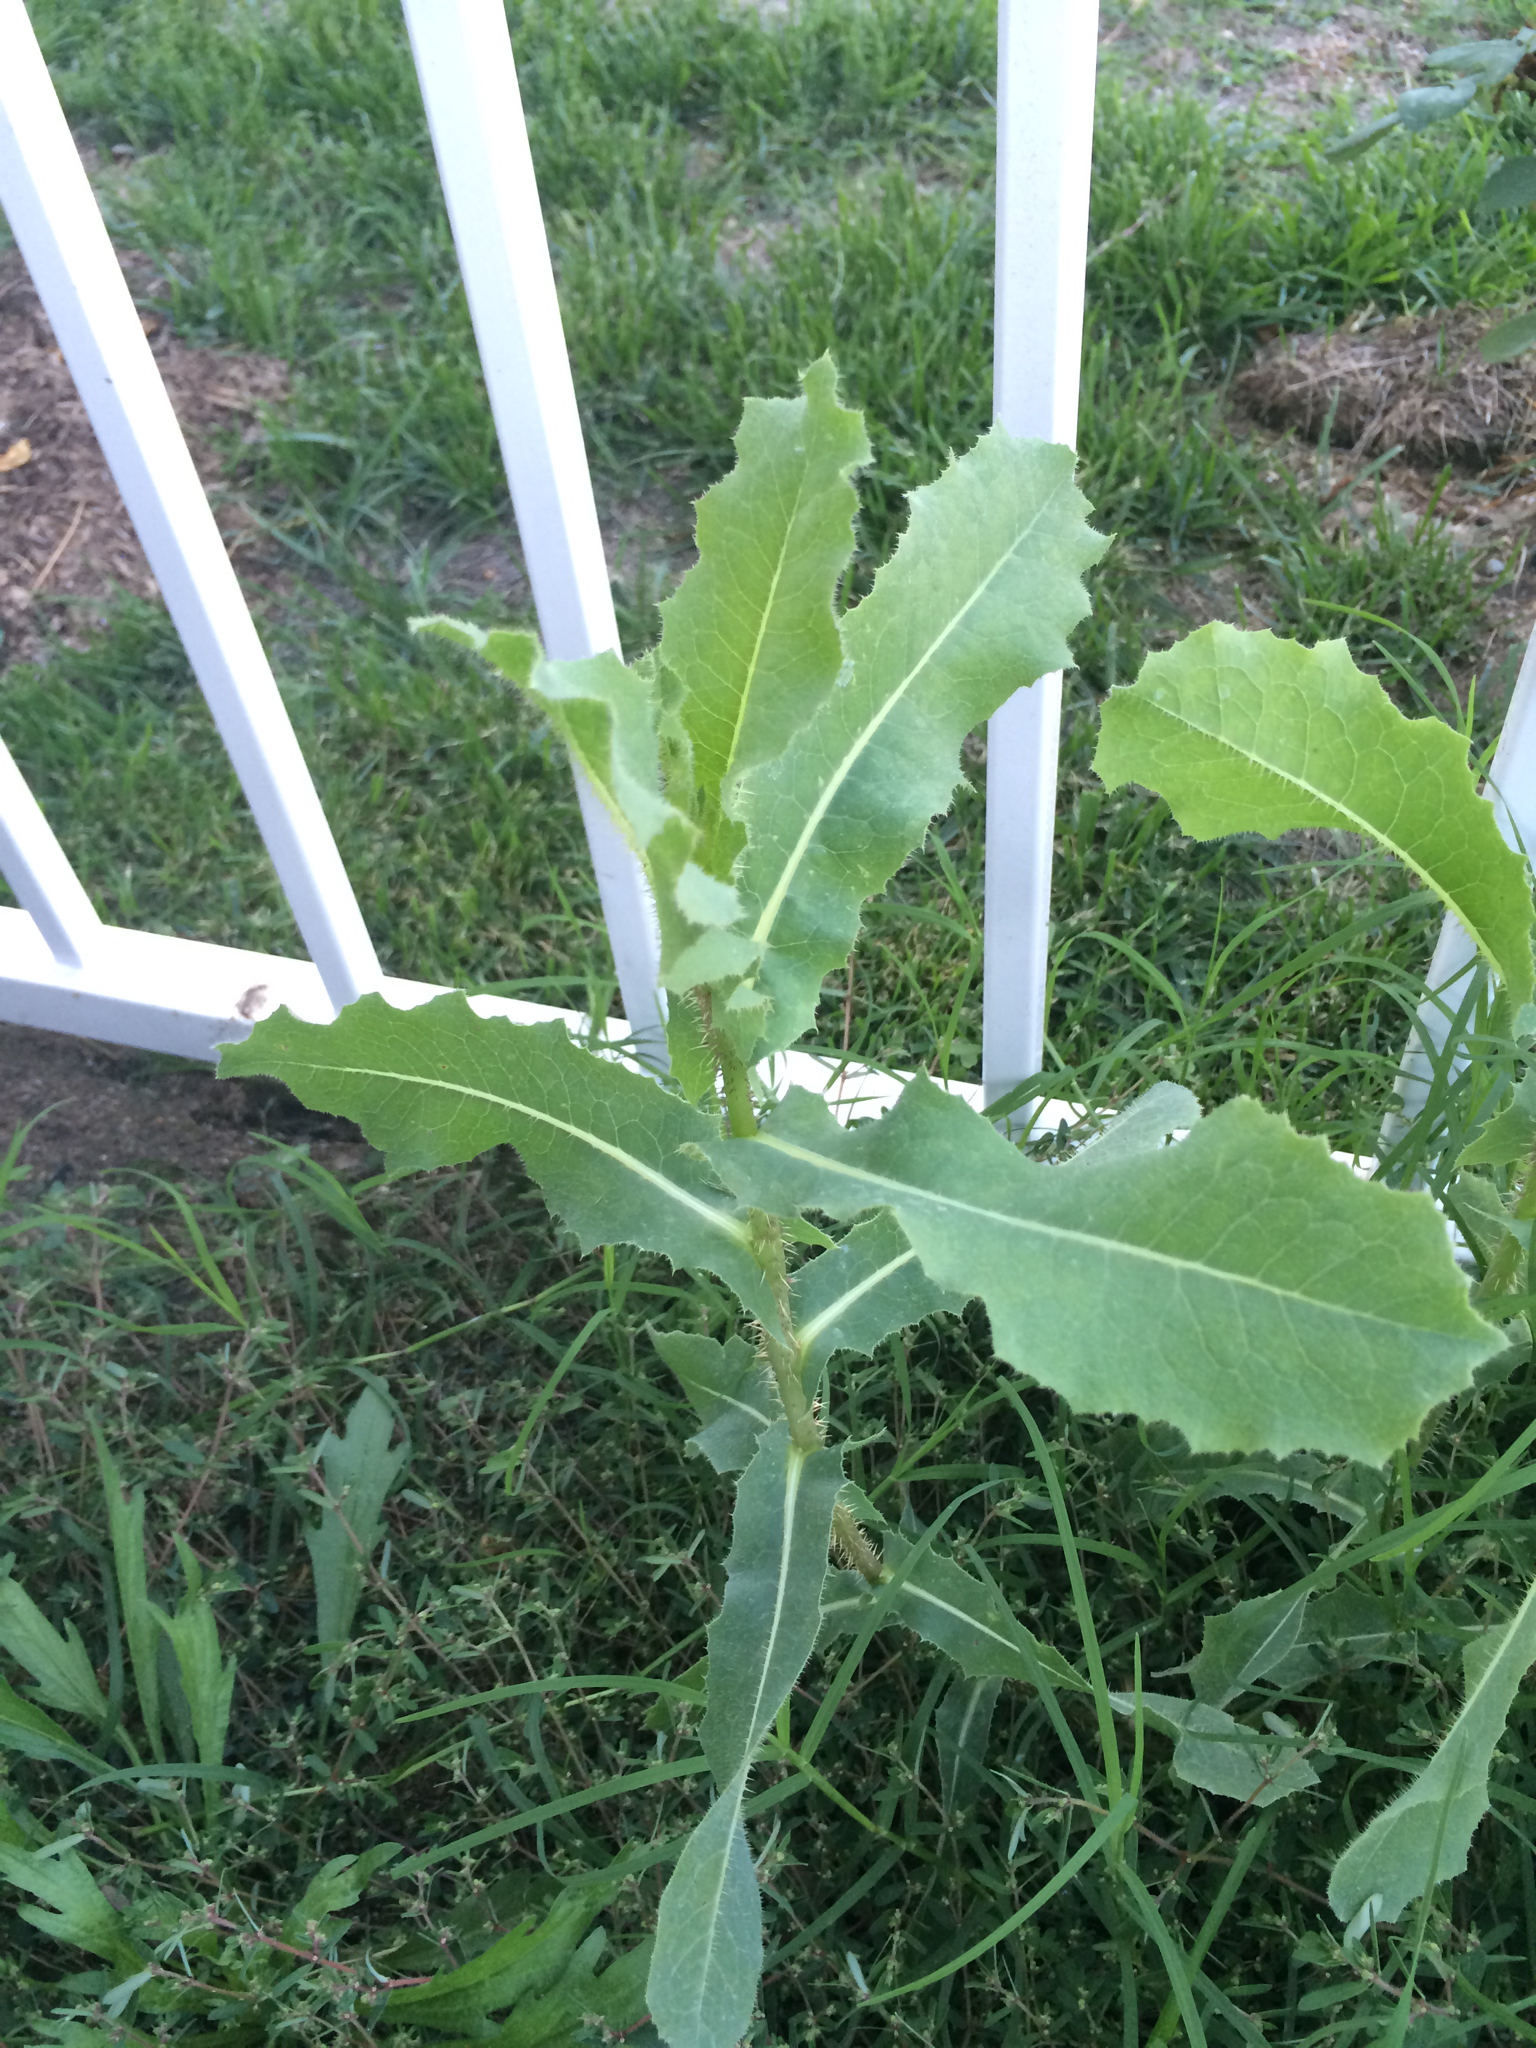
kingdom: Plantae
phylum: Tracheophyta
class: Magnoliopsida
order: Asterales
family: Asteraceae
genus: Lactuca
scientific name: Lactuca serriola
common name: Prickly lettuce
